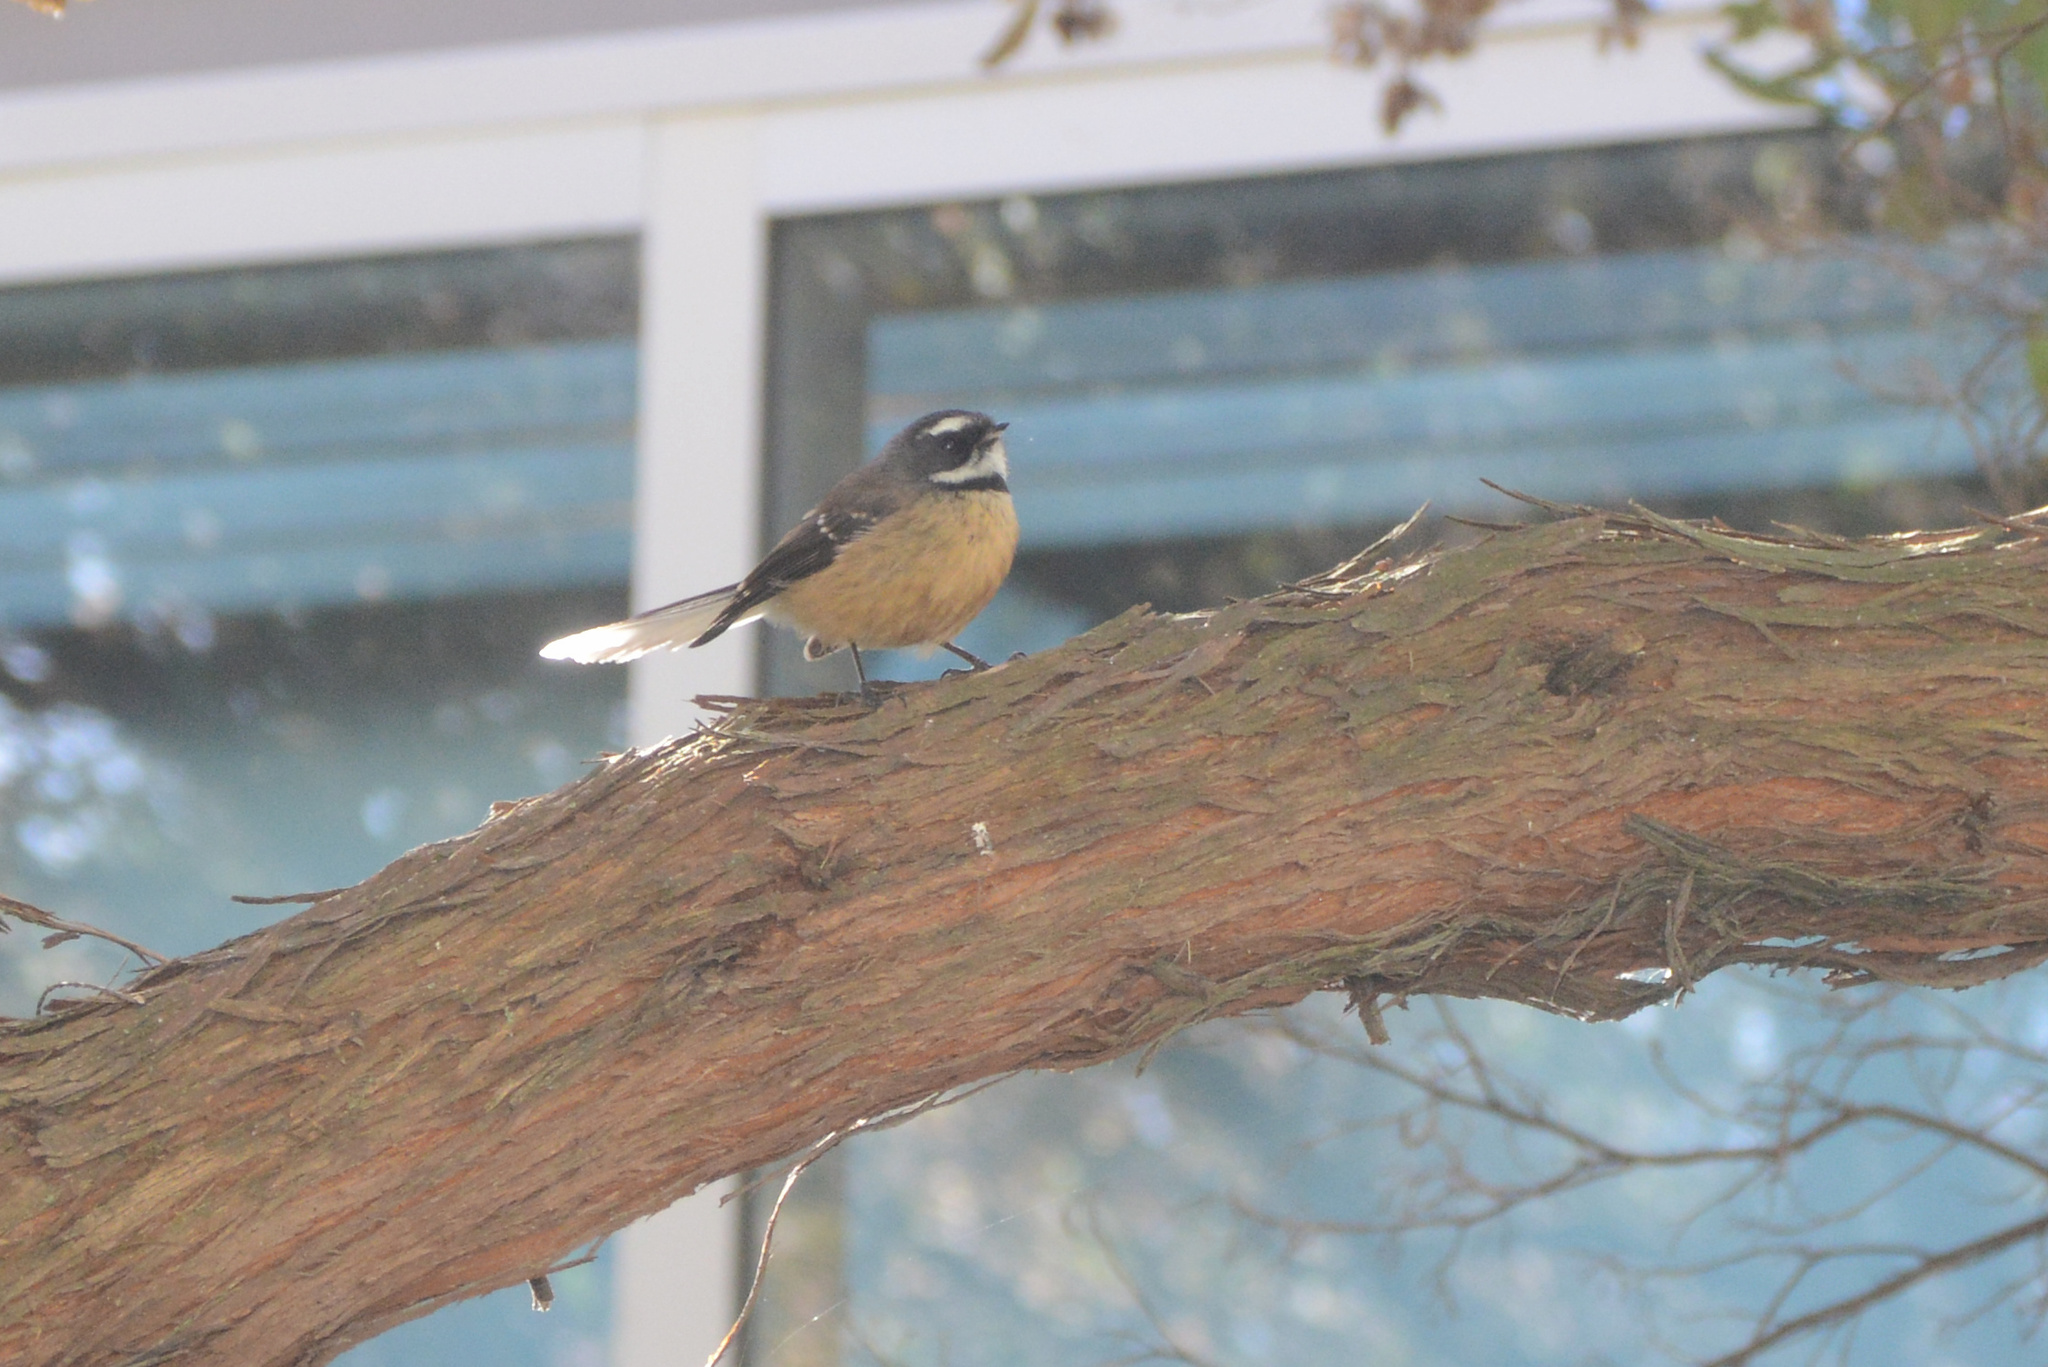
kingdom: Animalia
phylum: Chordata
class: Aves
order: Passeriformes
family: Rhipiduridae
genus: Rhipidura
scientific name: Rhipidura fuliginosa
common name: New zealand fantail
